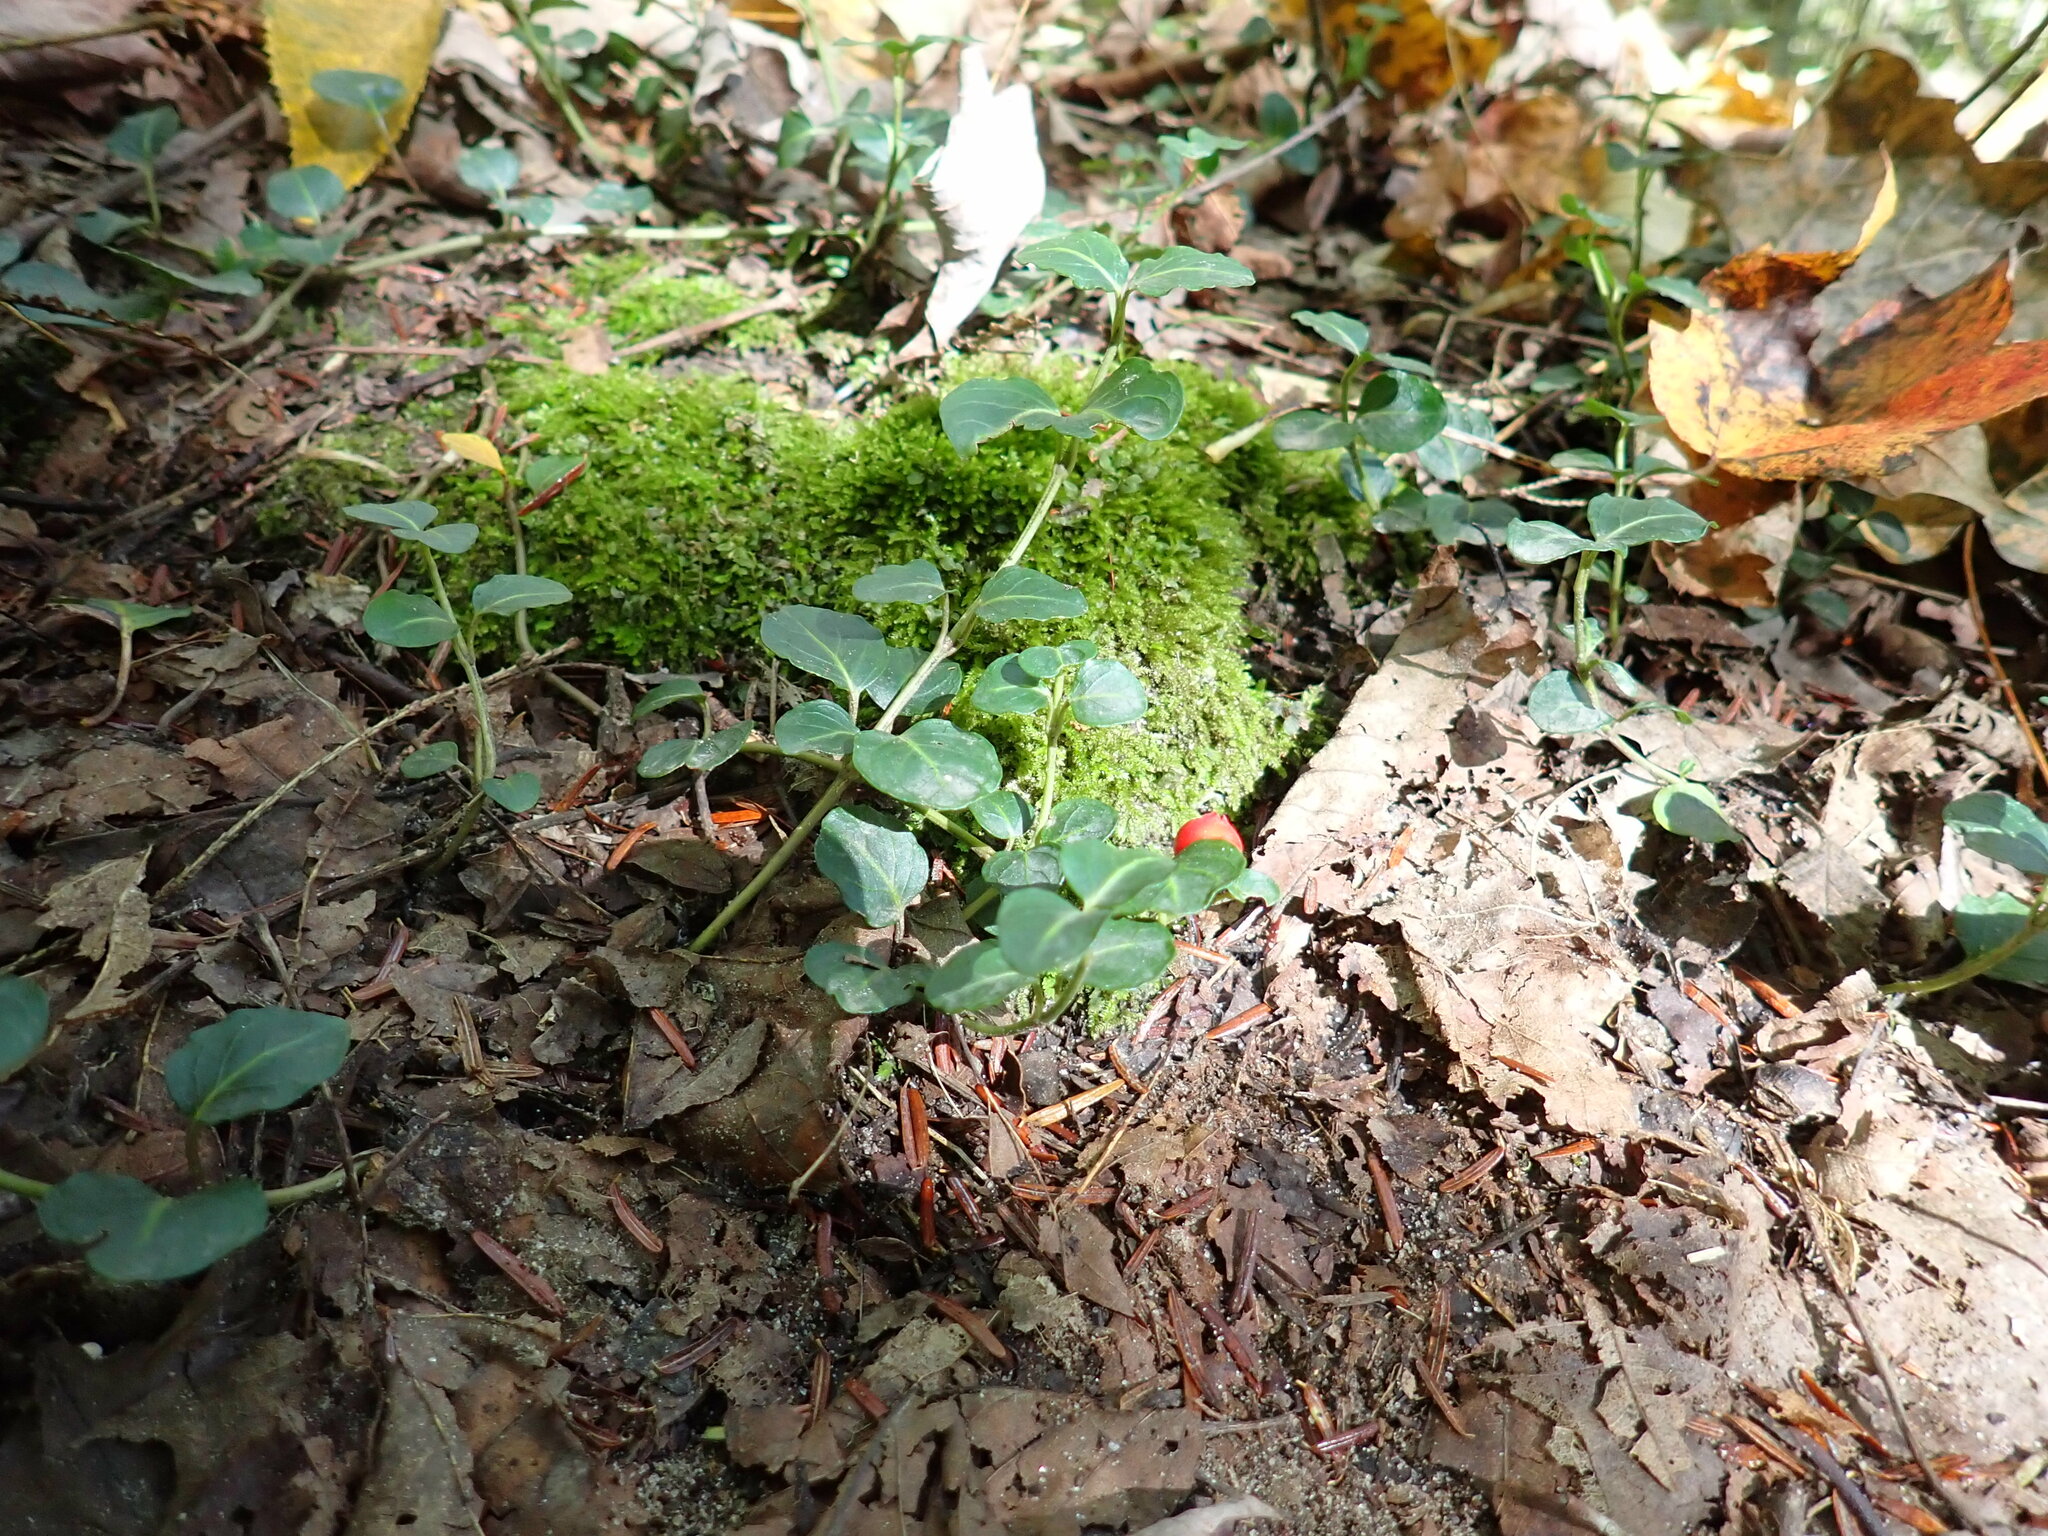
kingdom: Plantae
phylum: Tracheophyta
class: Magnoliopsida
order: Gentianales
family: Rubiaceae
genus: Mitchella
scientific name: Mitchella repens
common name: Partridge-berry
